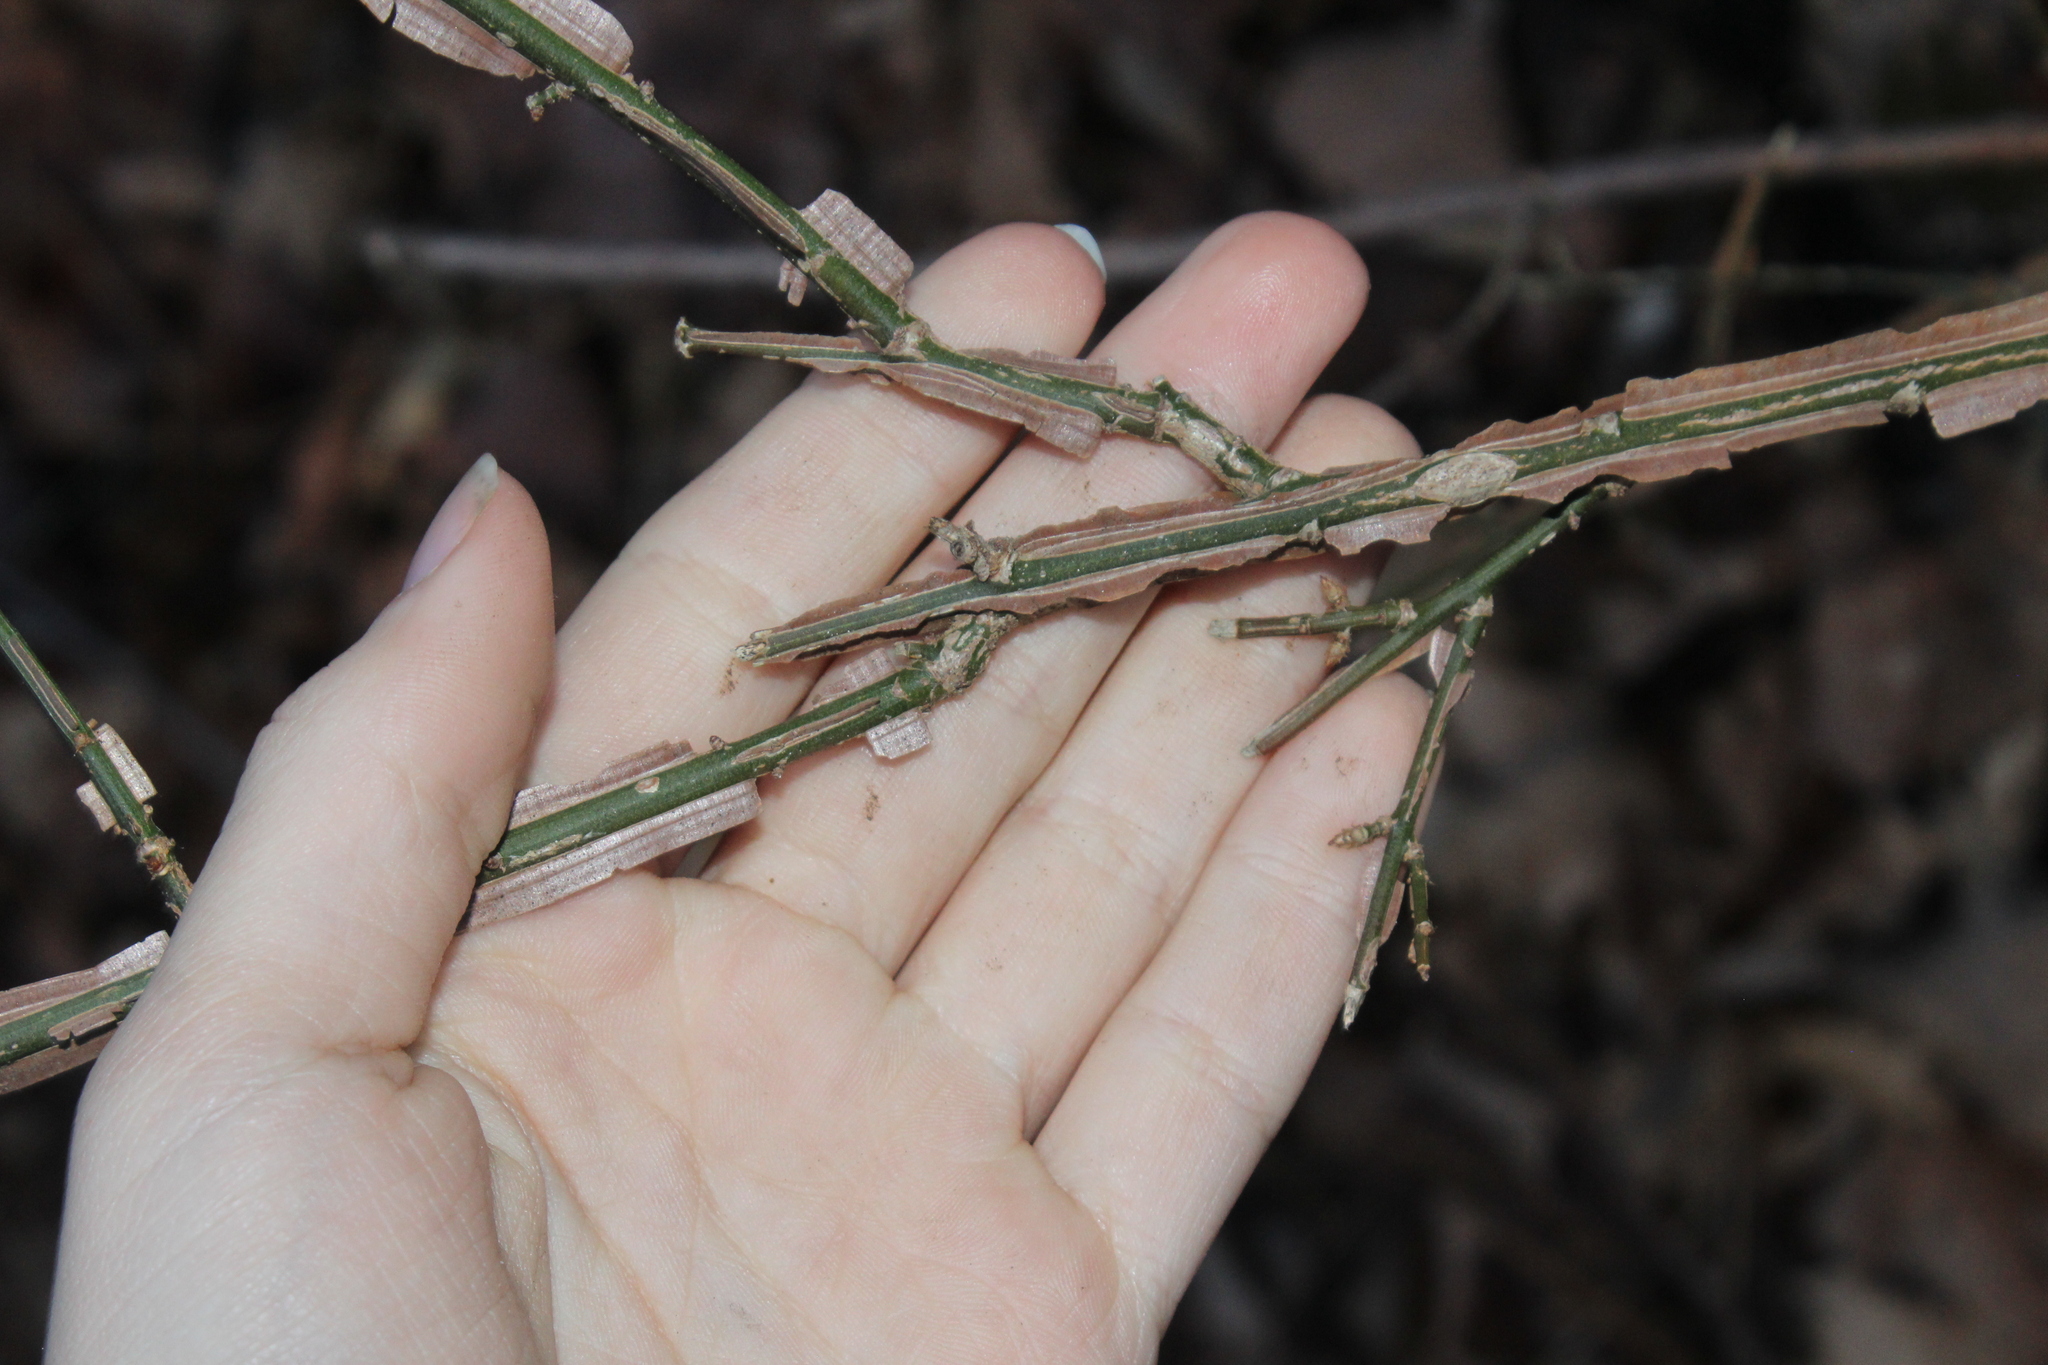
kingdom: Plantae
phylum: Tracheophyta
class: Magnoliopsida
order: Celastrales
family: Celastraceae
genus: Euonymus
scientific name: Euonymus alatus
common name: Winged euonymus
